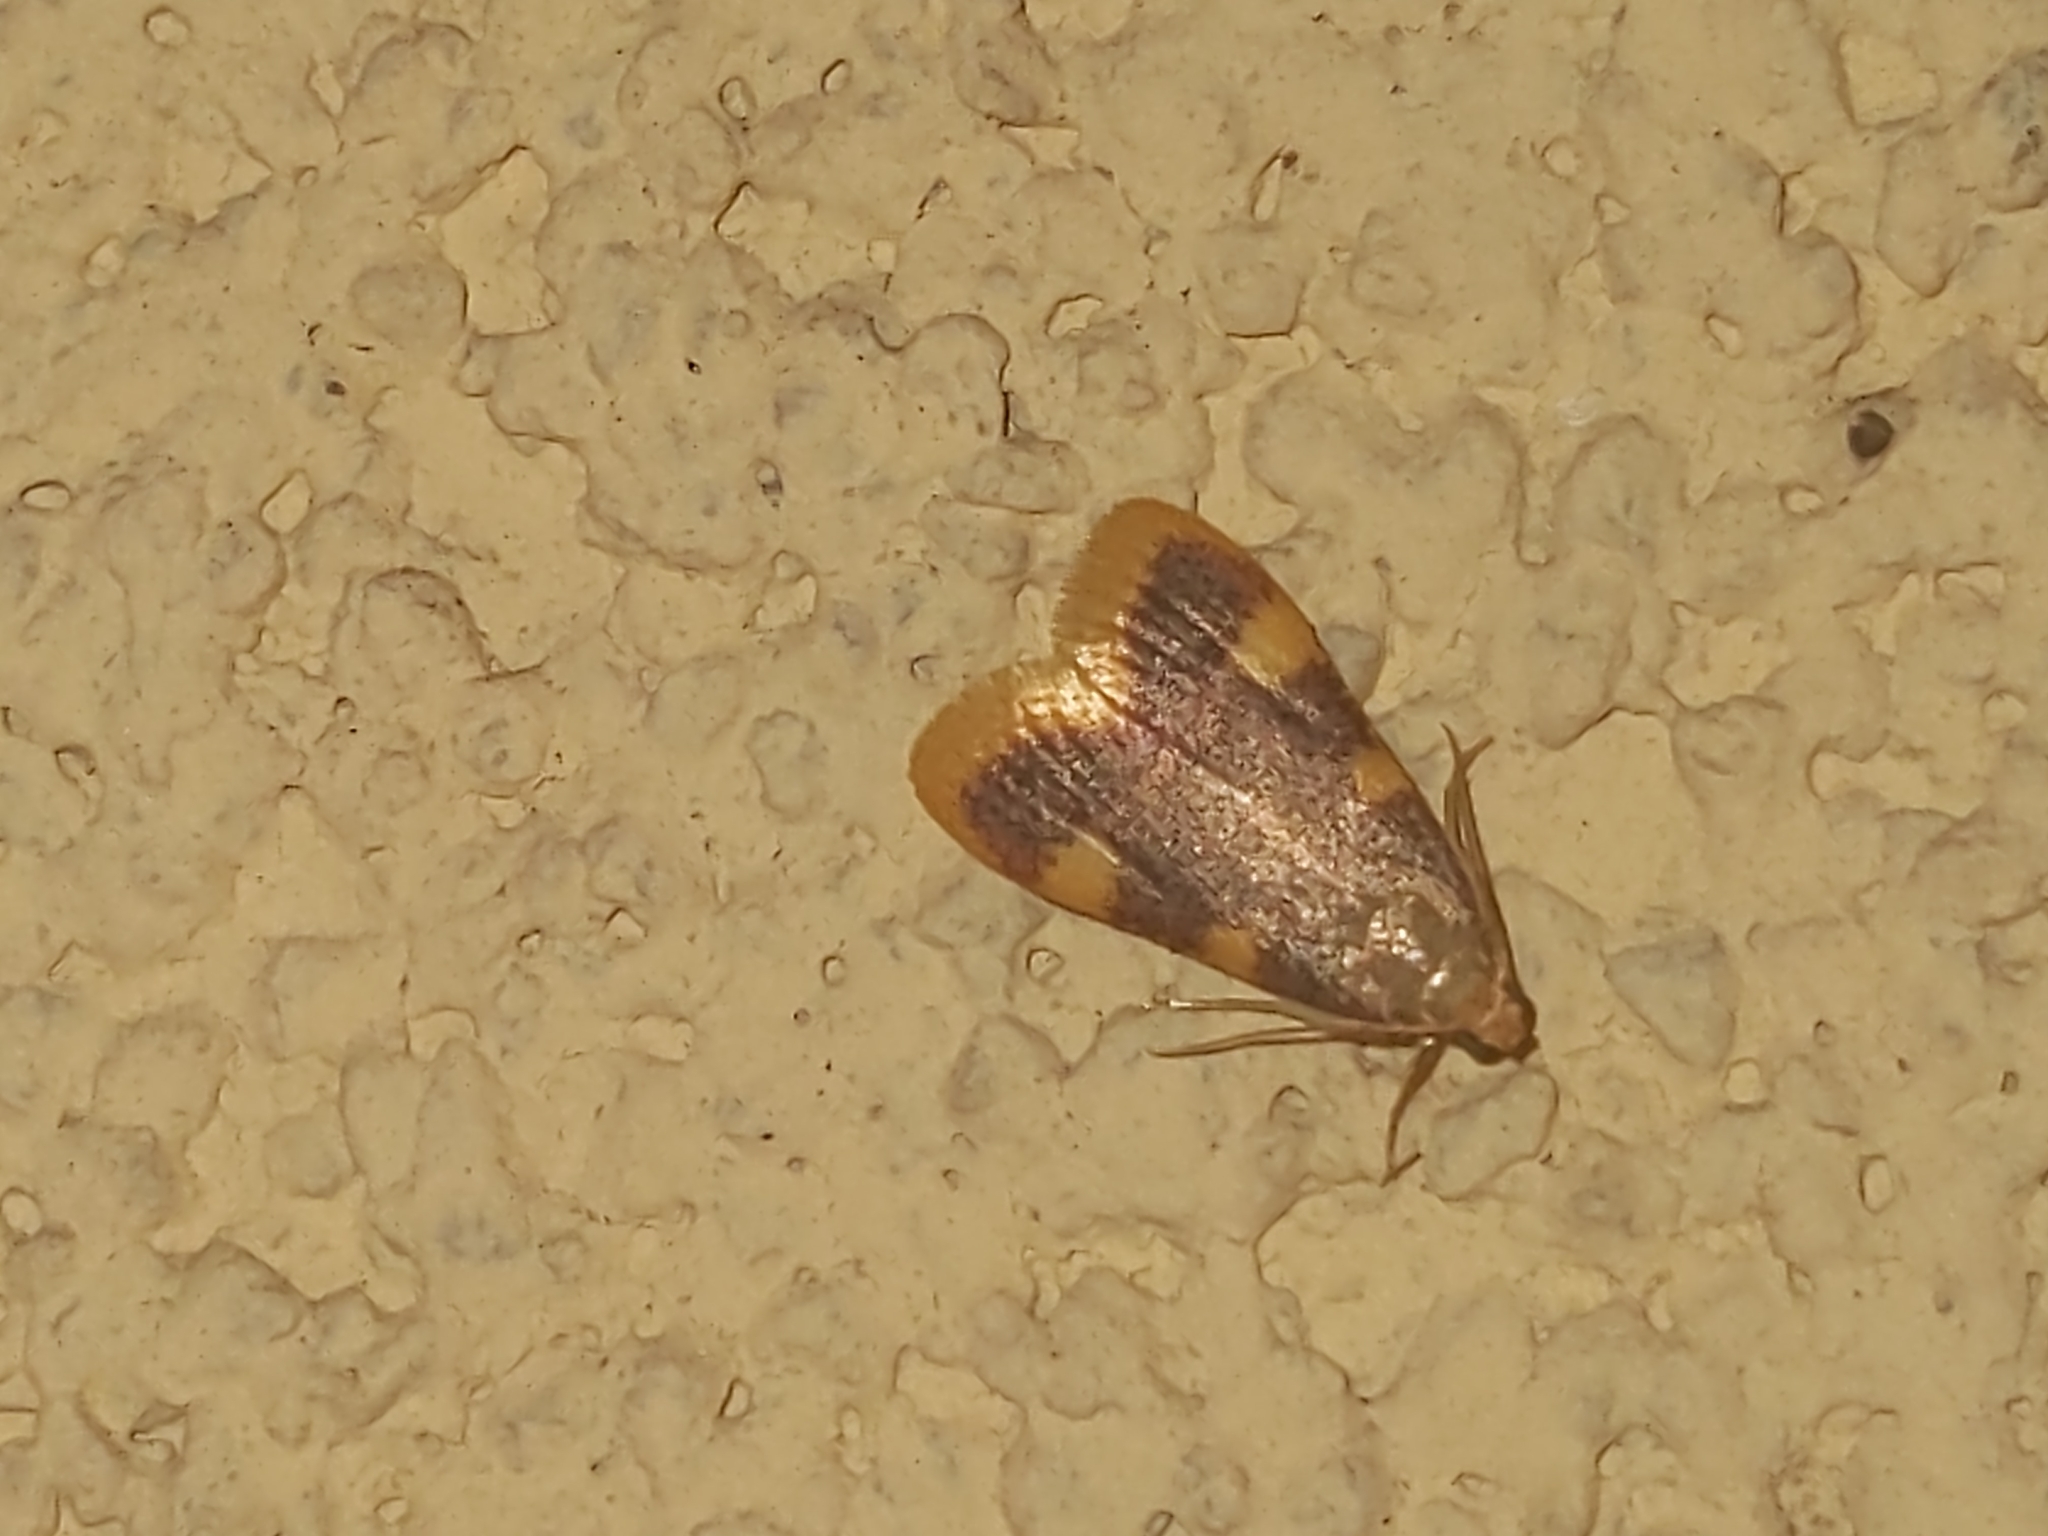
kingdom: Animalia
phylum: Arthropoda
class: Insecta
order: Lepidoptera
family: Pyralidae
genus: Hypsopygia
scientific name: Hypsopygia costalis
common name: Gold triangle
